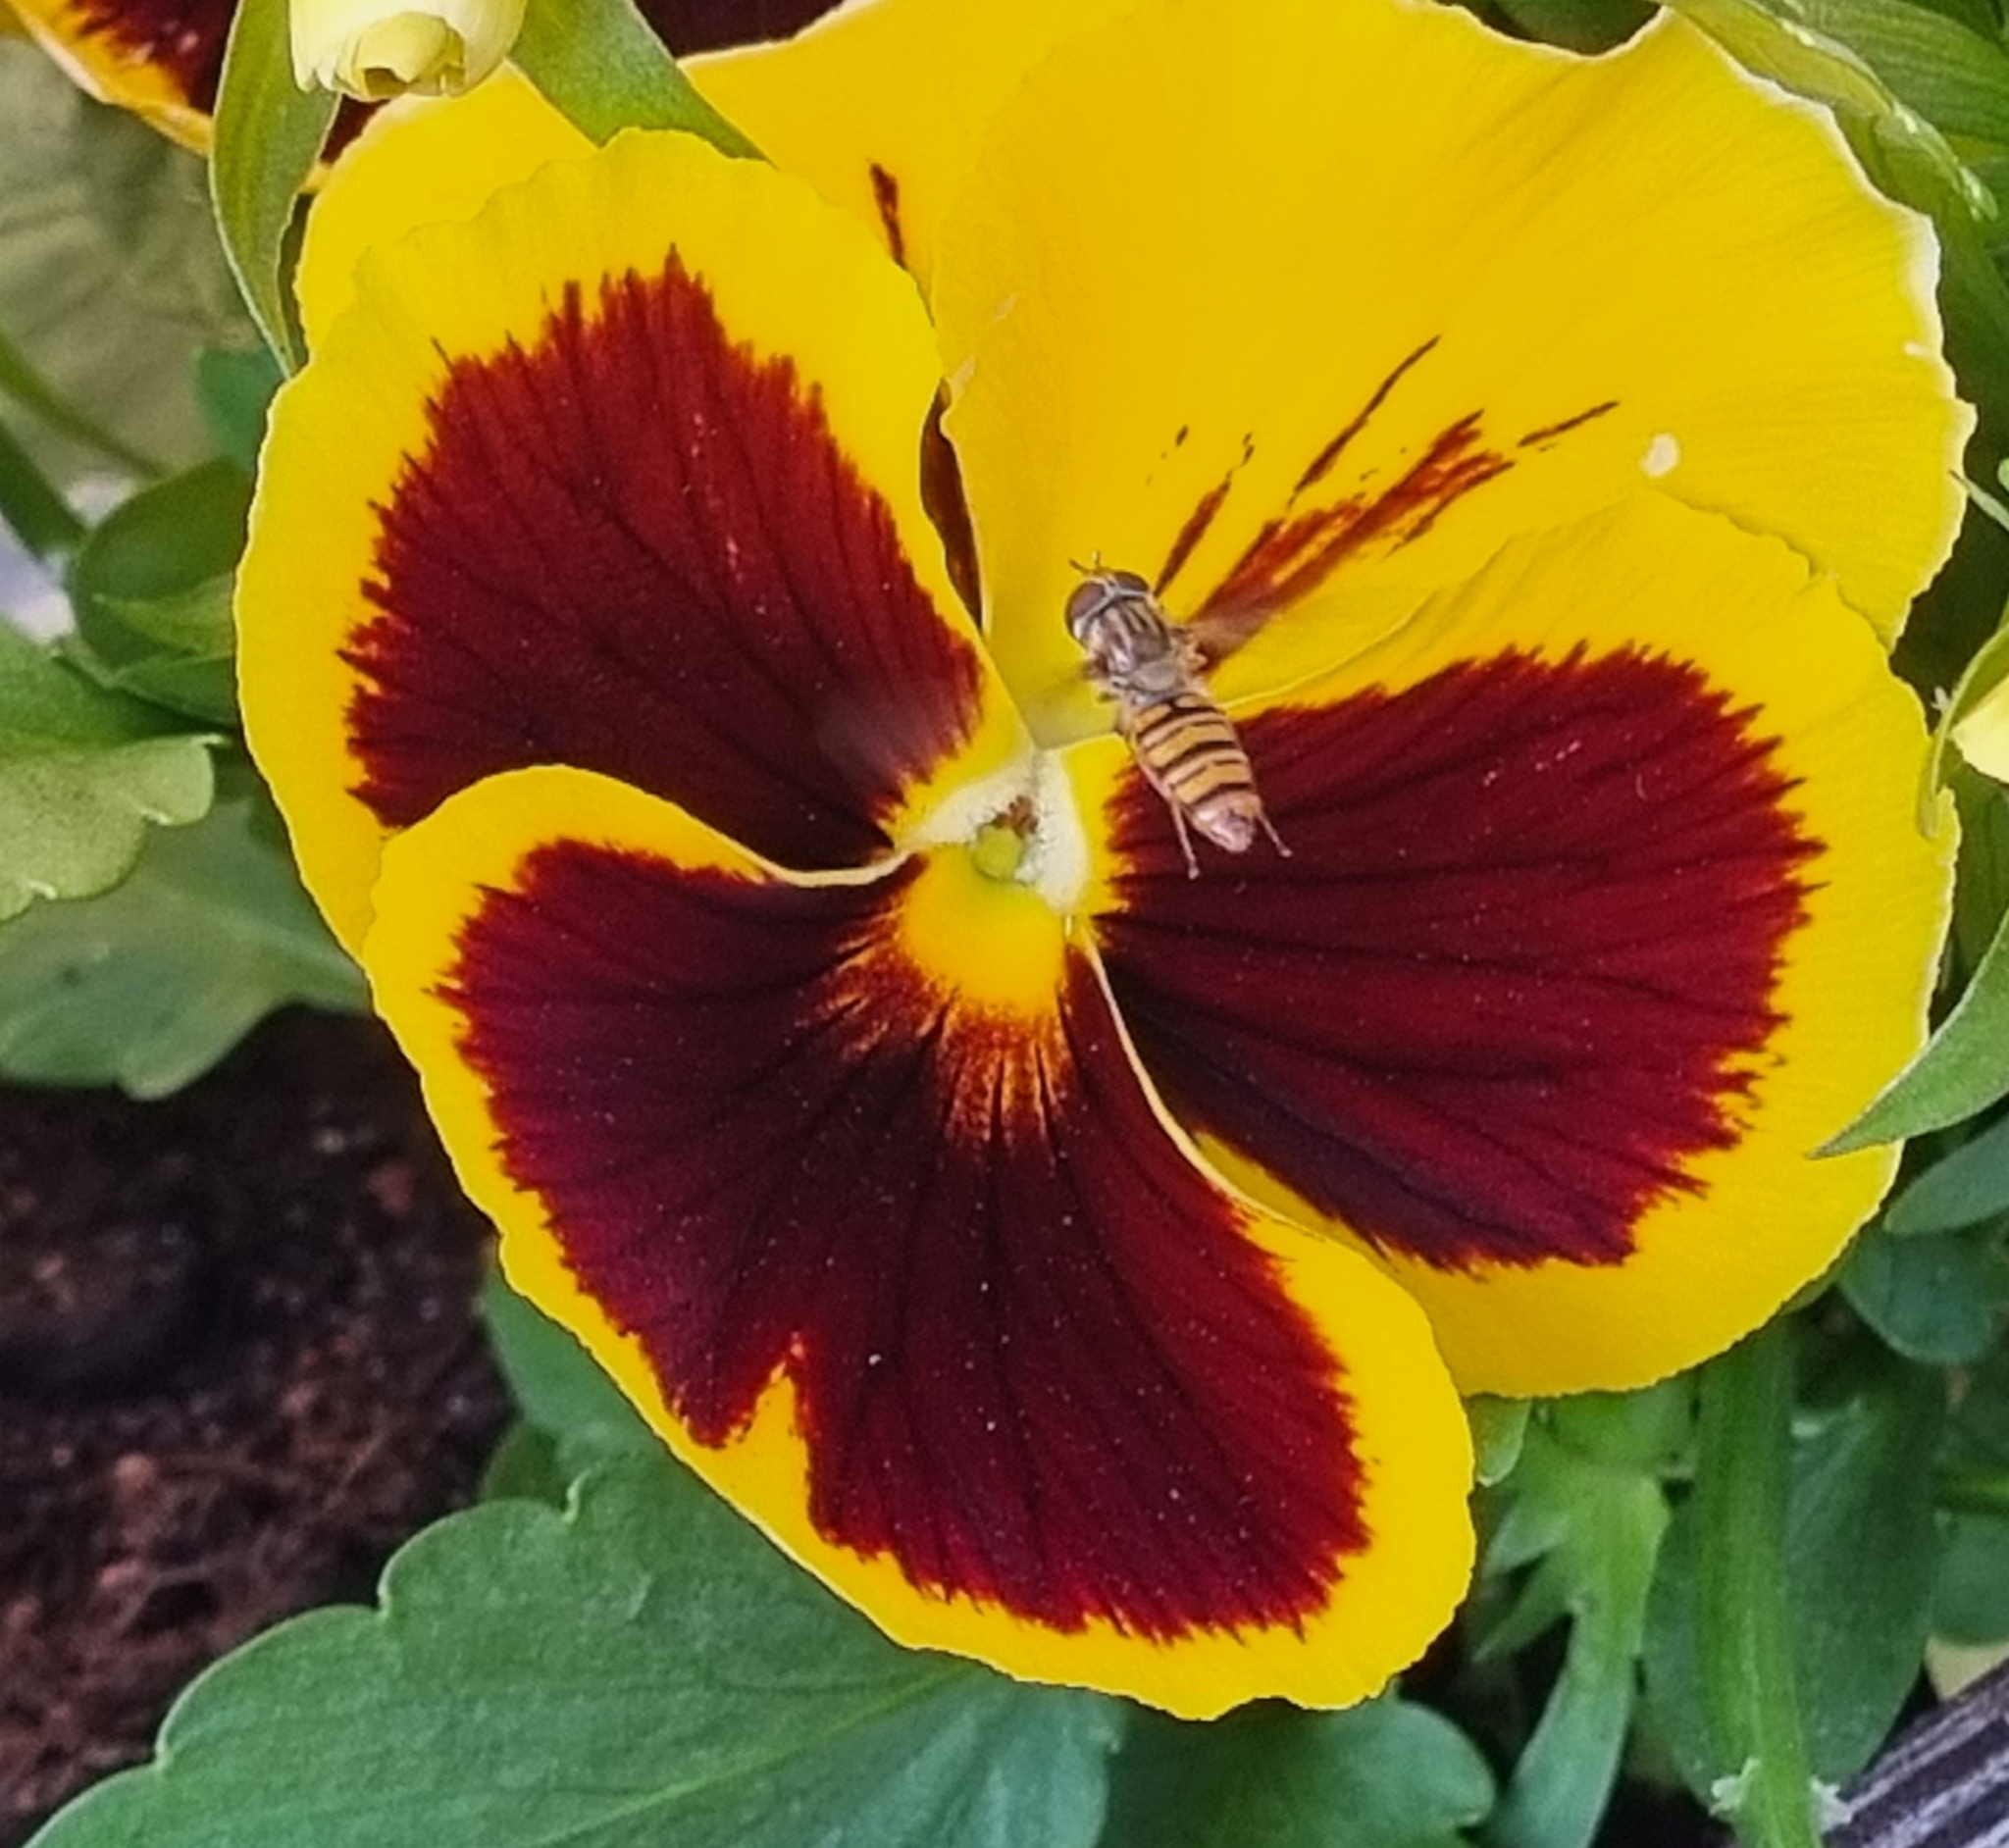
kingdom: Animalia
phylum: Arthropoda
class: Insecta
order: Diptera
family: Syrphidae
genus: Episyrphus
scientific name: Episyrphus balteatus
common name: Marmalade hoverfly
